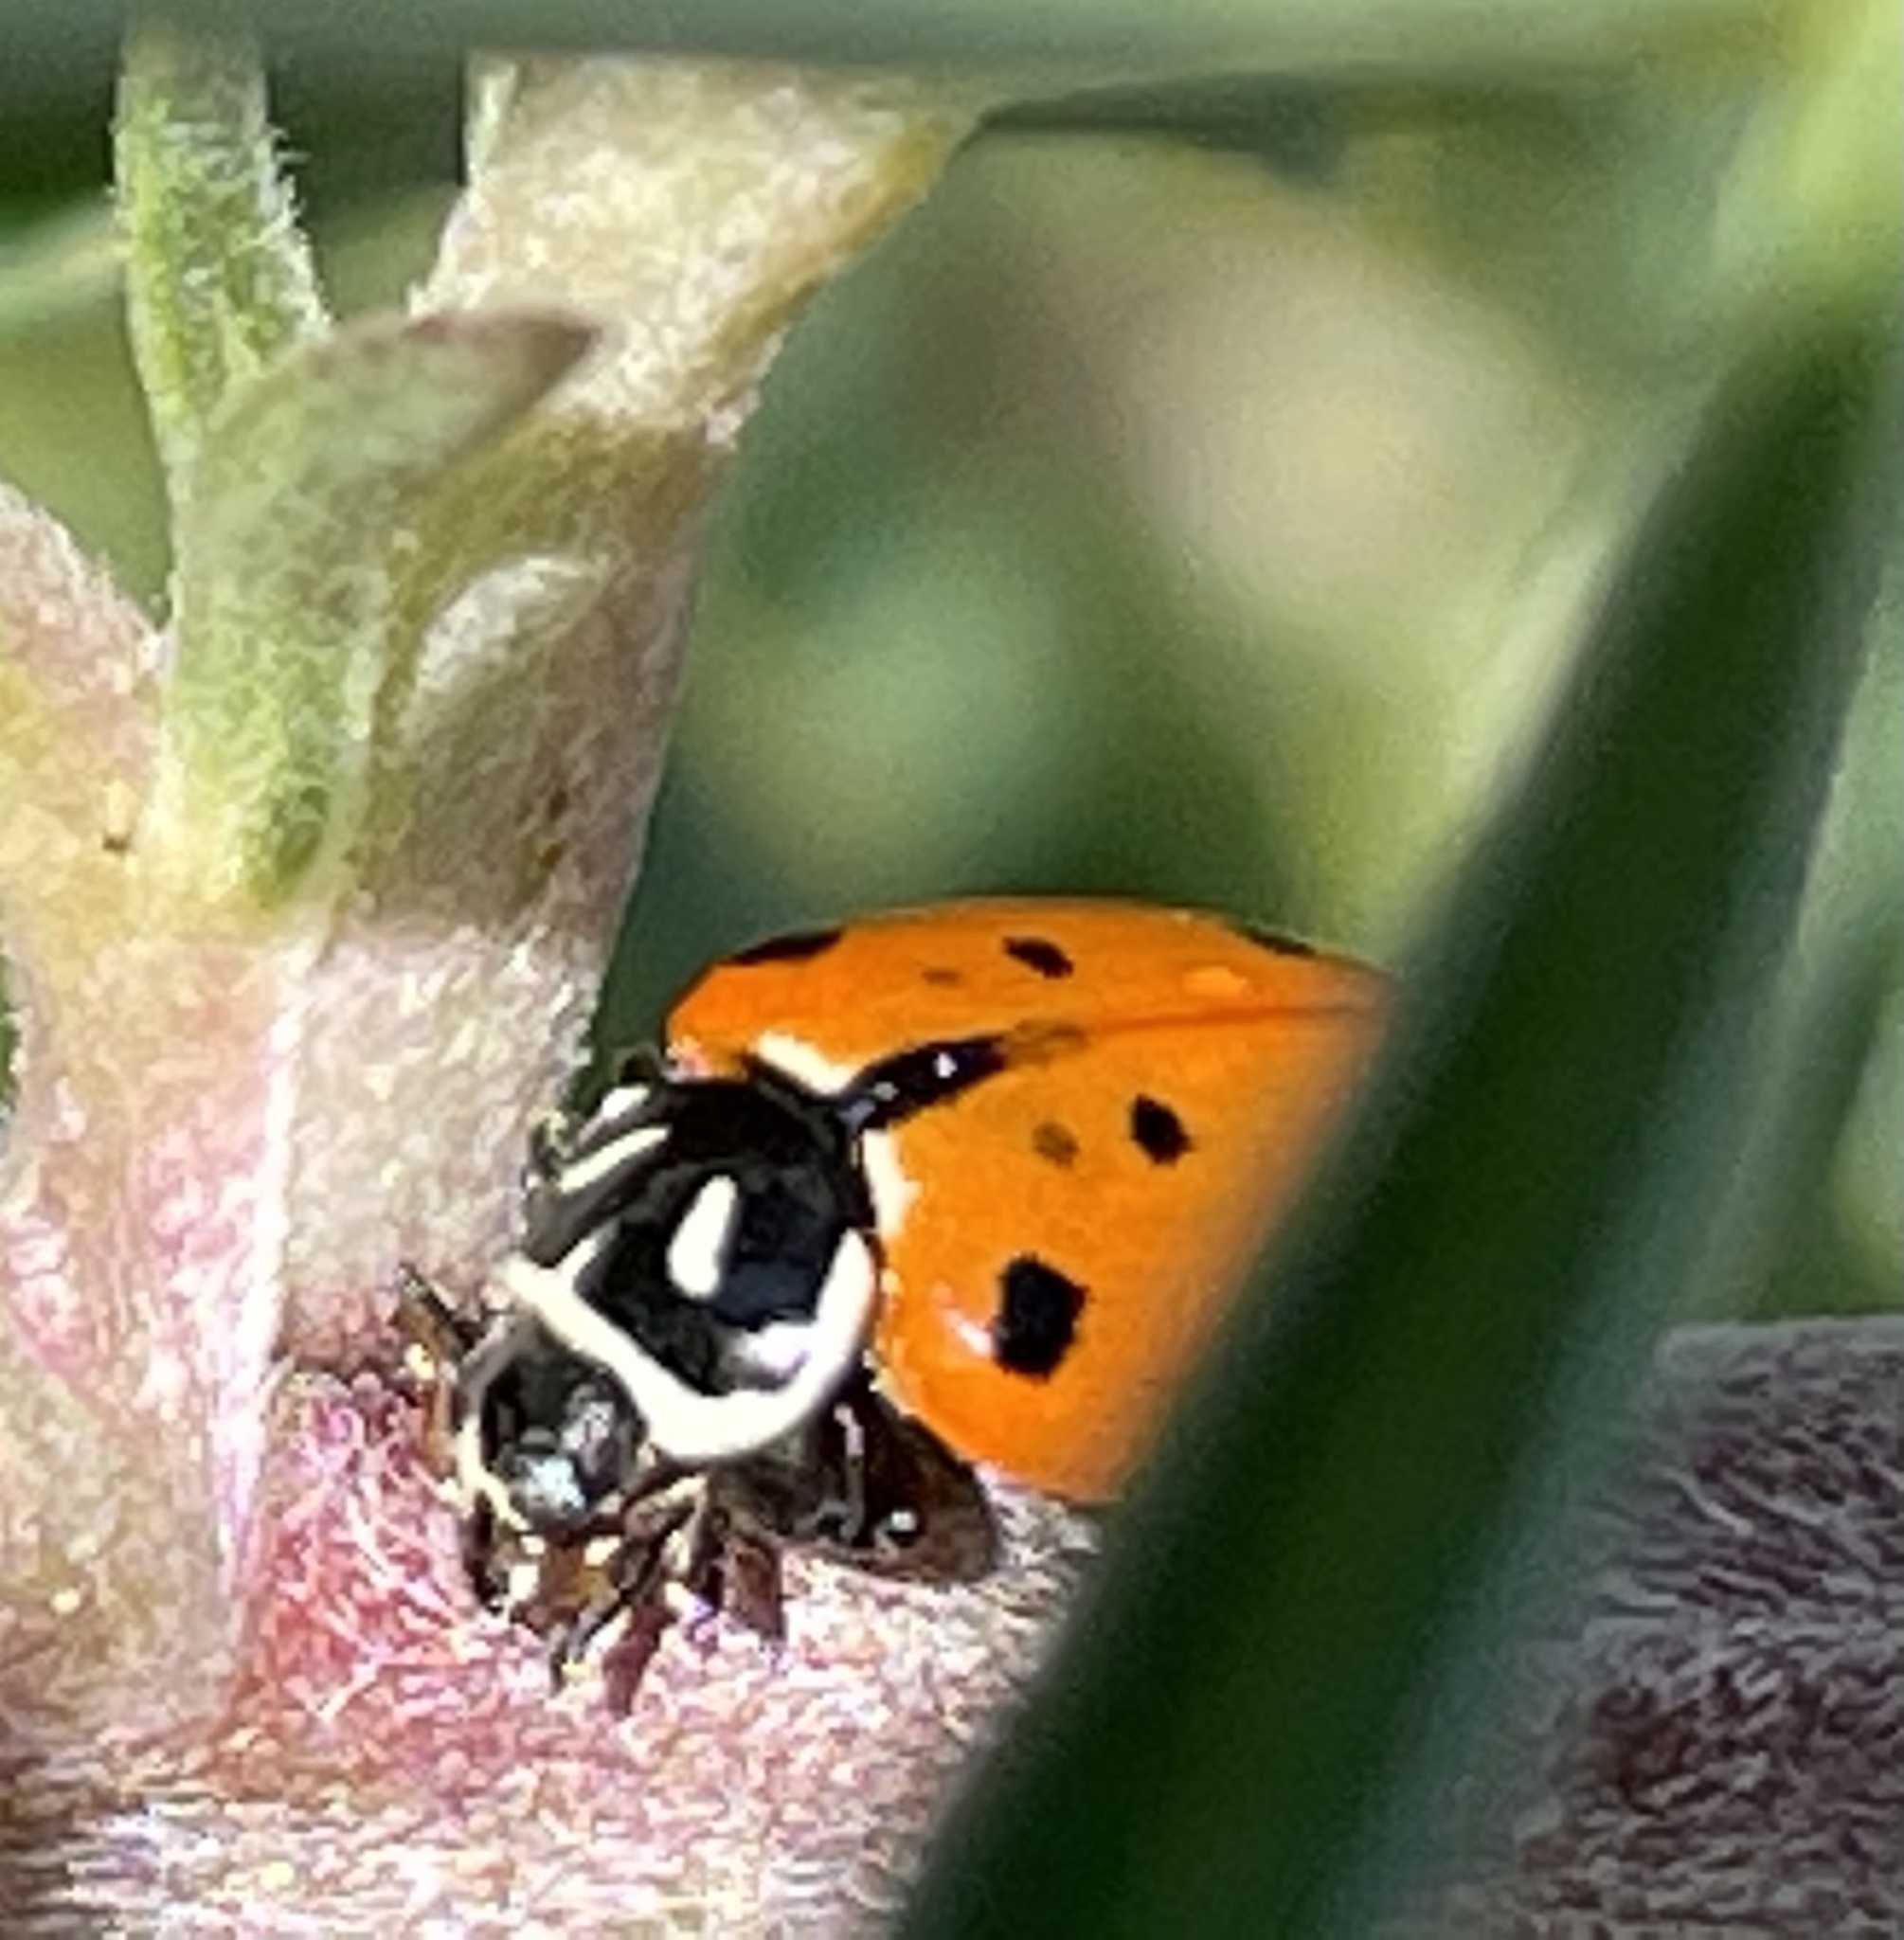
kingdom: Animalia
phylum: Arthropoda
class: Insecta
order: Coleoptera
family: Coccinellidae
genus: Hippodamia
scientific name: Hippodamia convergens
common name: Convergent lady beetle
